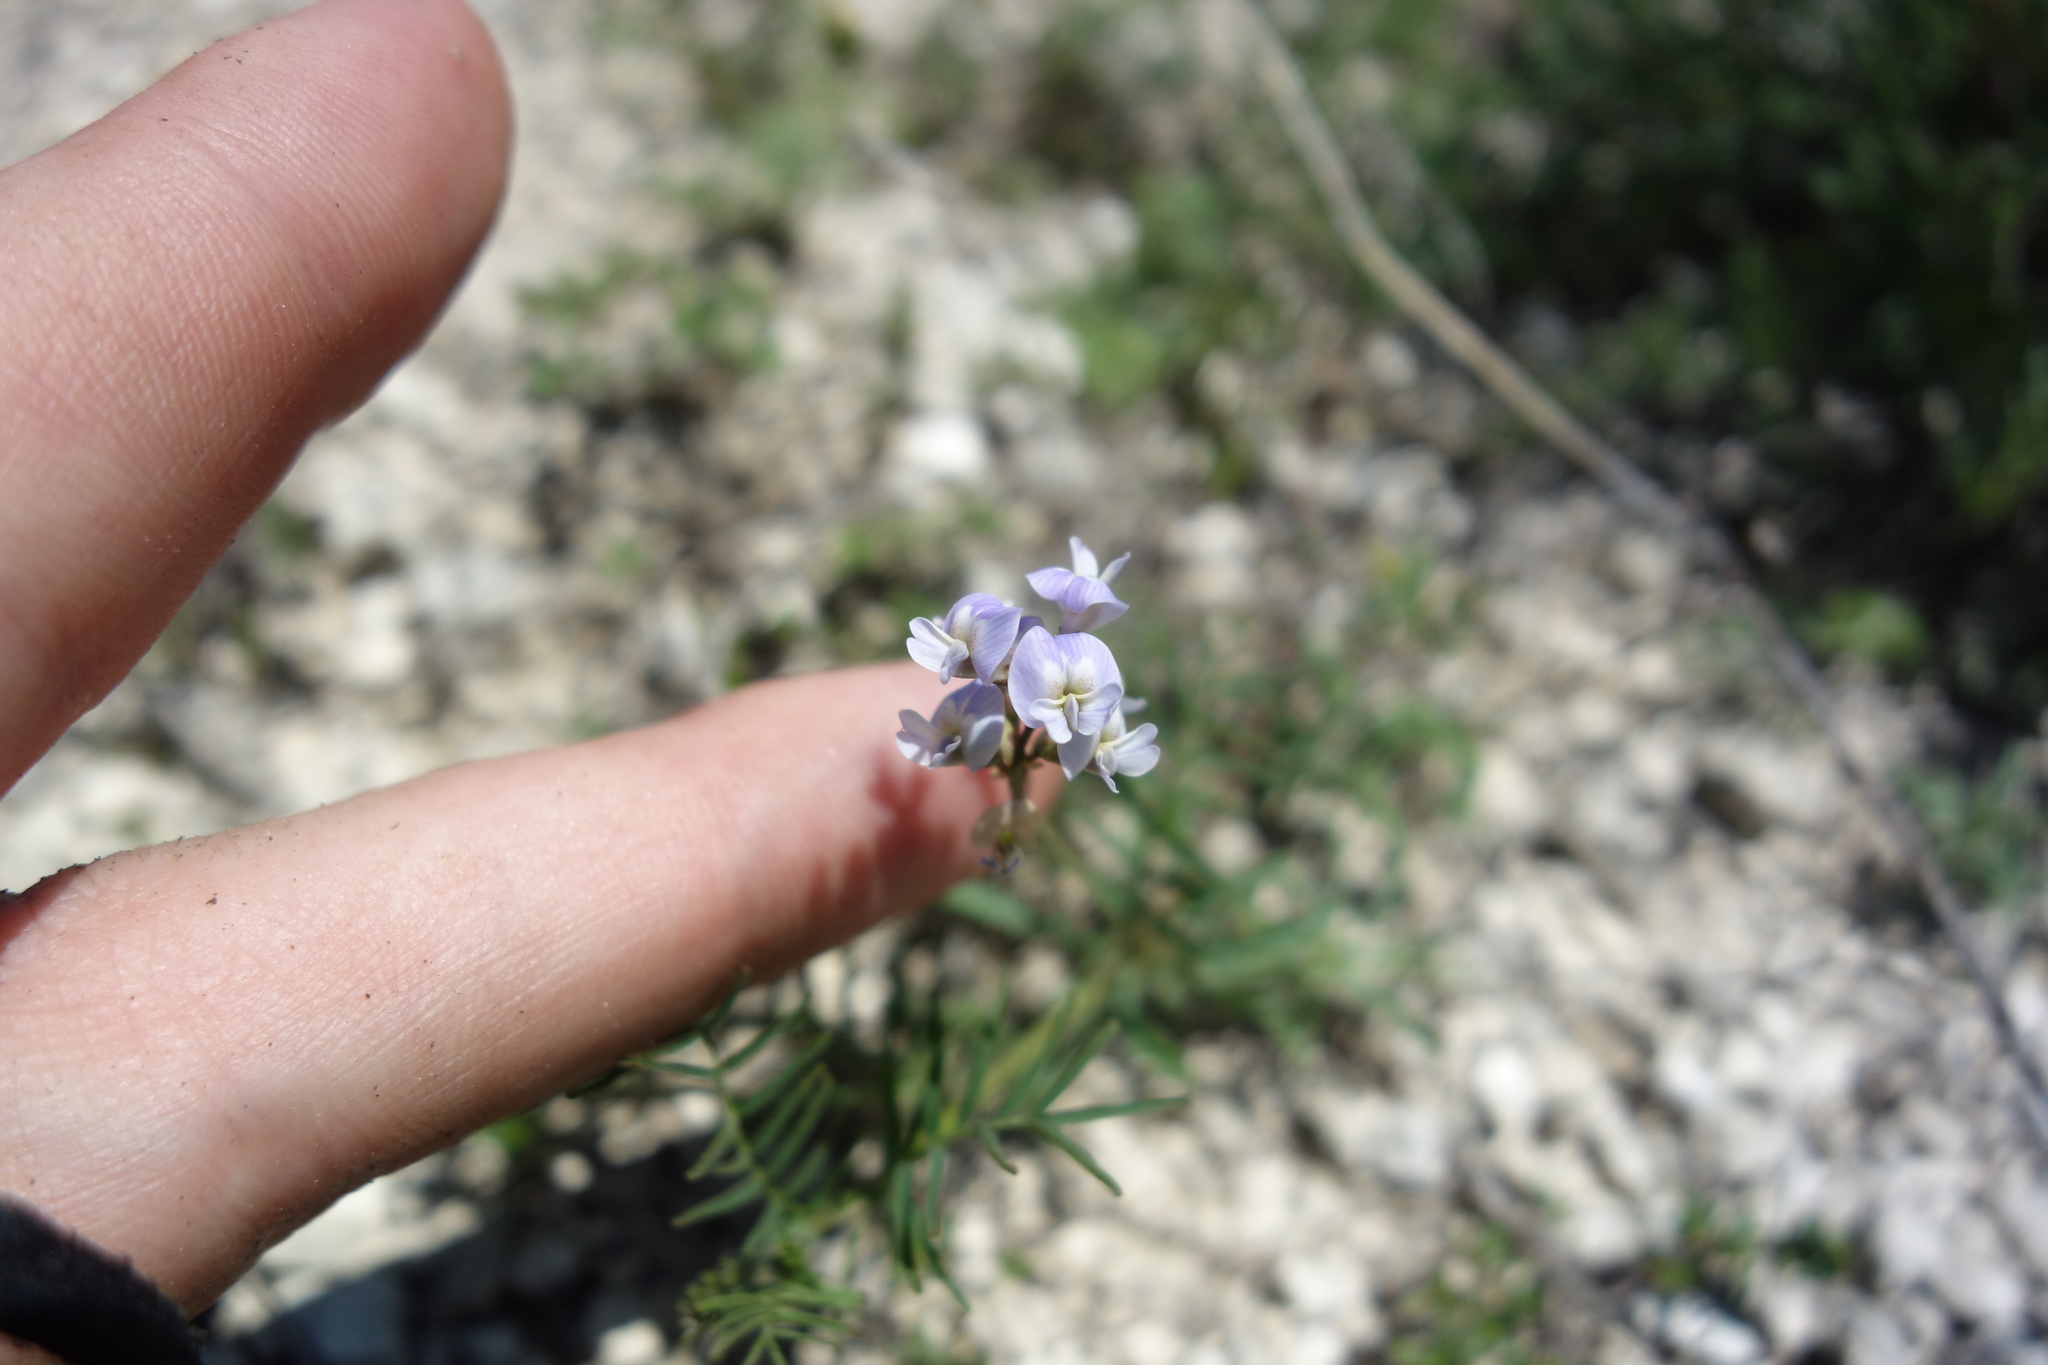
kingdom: Plantae
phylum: Tracheophyta
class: Magnoliopsida
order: Fabales
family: Fabaceae
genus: Astragalus
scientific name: Astragalus austriacus
